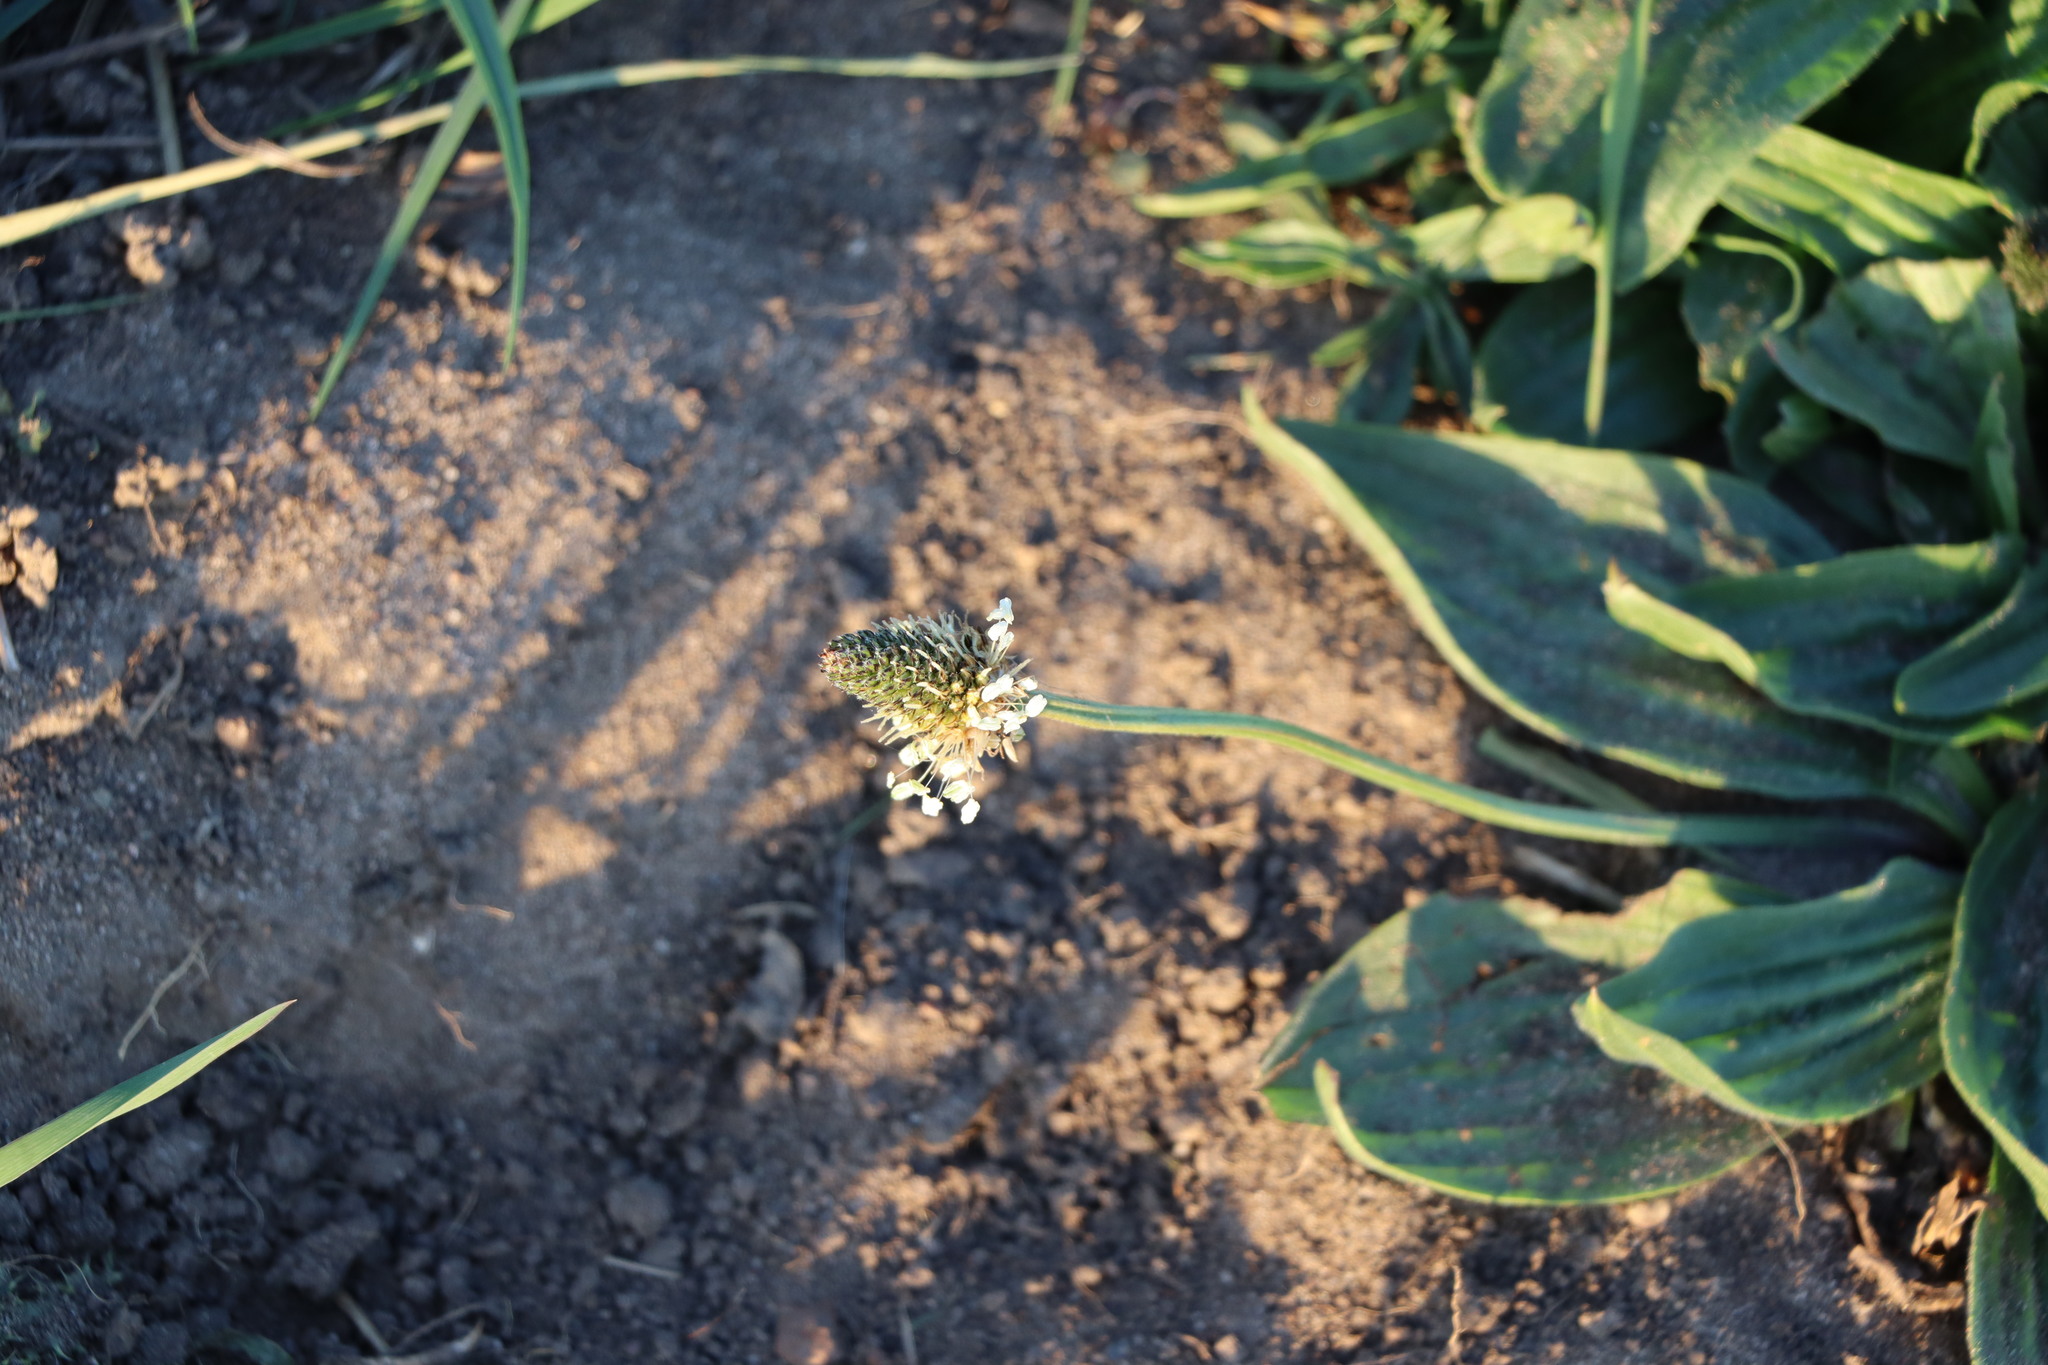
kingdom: Plantae
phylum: Tracheophyta
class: Magnoliopsida
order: Lamiales
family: Plantaginaceae
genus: Plantago
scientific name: Plantago lanceolata
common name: Ribwort plantain
